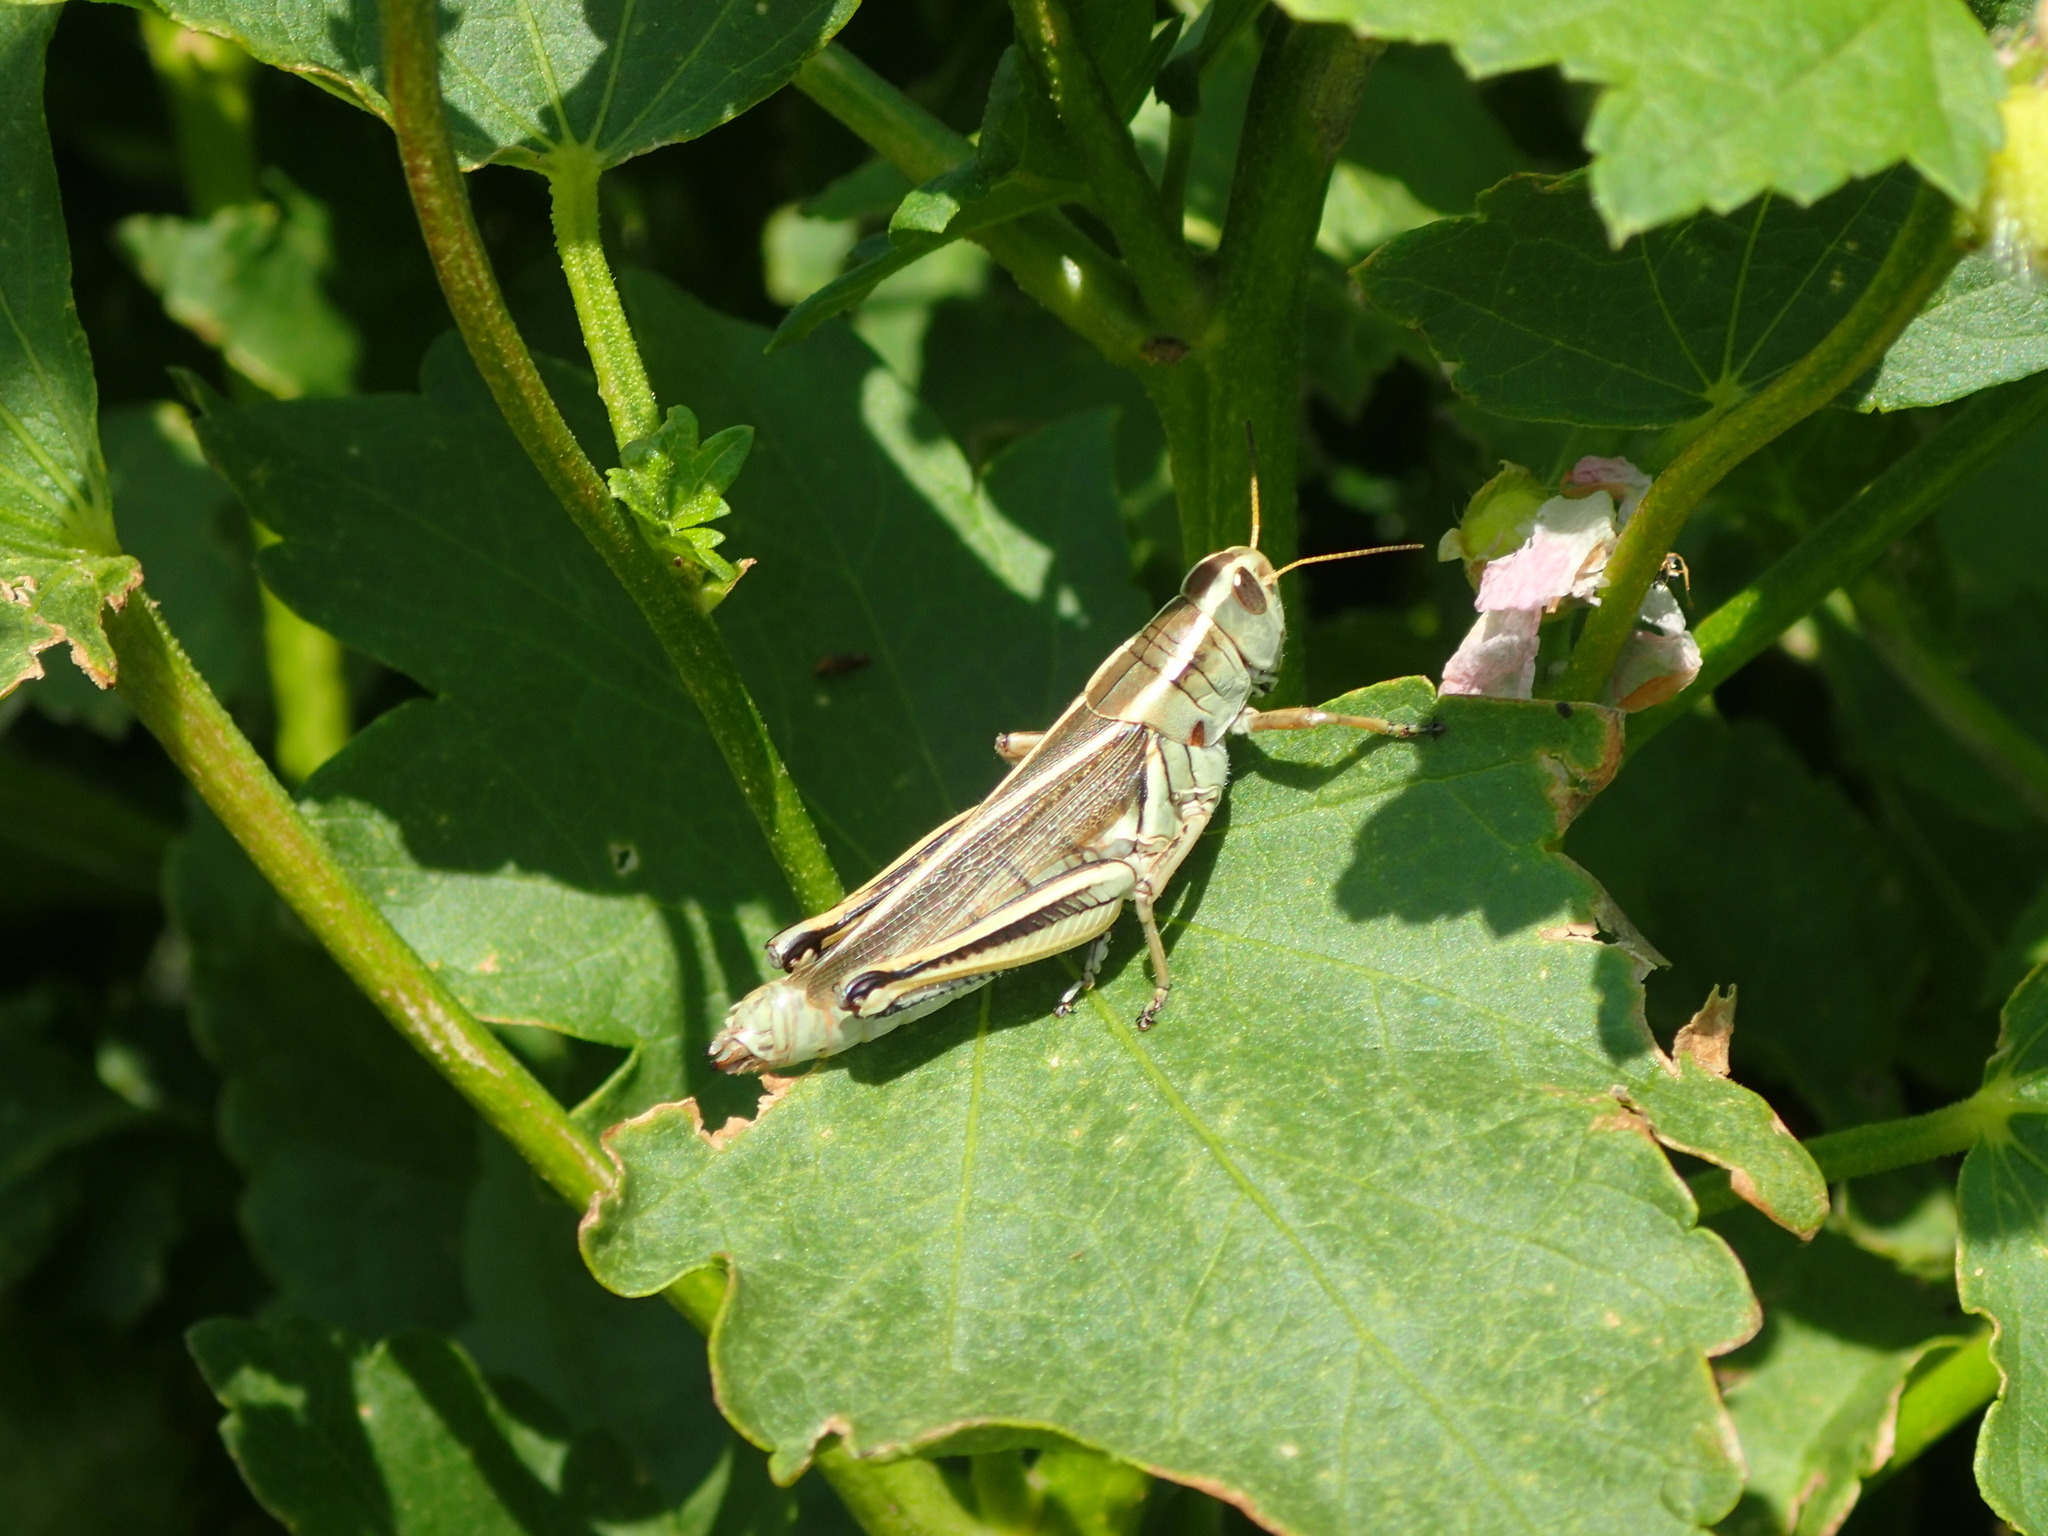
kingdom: Animalia
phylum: Arthropoda
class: Insecta
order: Orthoptera
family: Acrididae
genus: Melanoplus
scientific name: Melanoplus bivittatus
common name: Two-striped grasshopper
